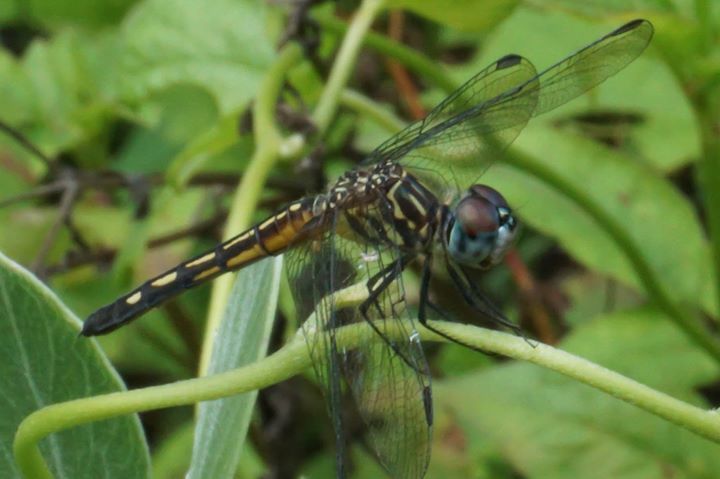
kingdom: Animalia
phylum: Arthropoda
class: Insecta
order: Odonata
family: Libellulidae
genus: Pachydiplax
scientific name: Pachydiplax longipennis
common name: Blue dasher
